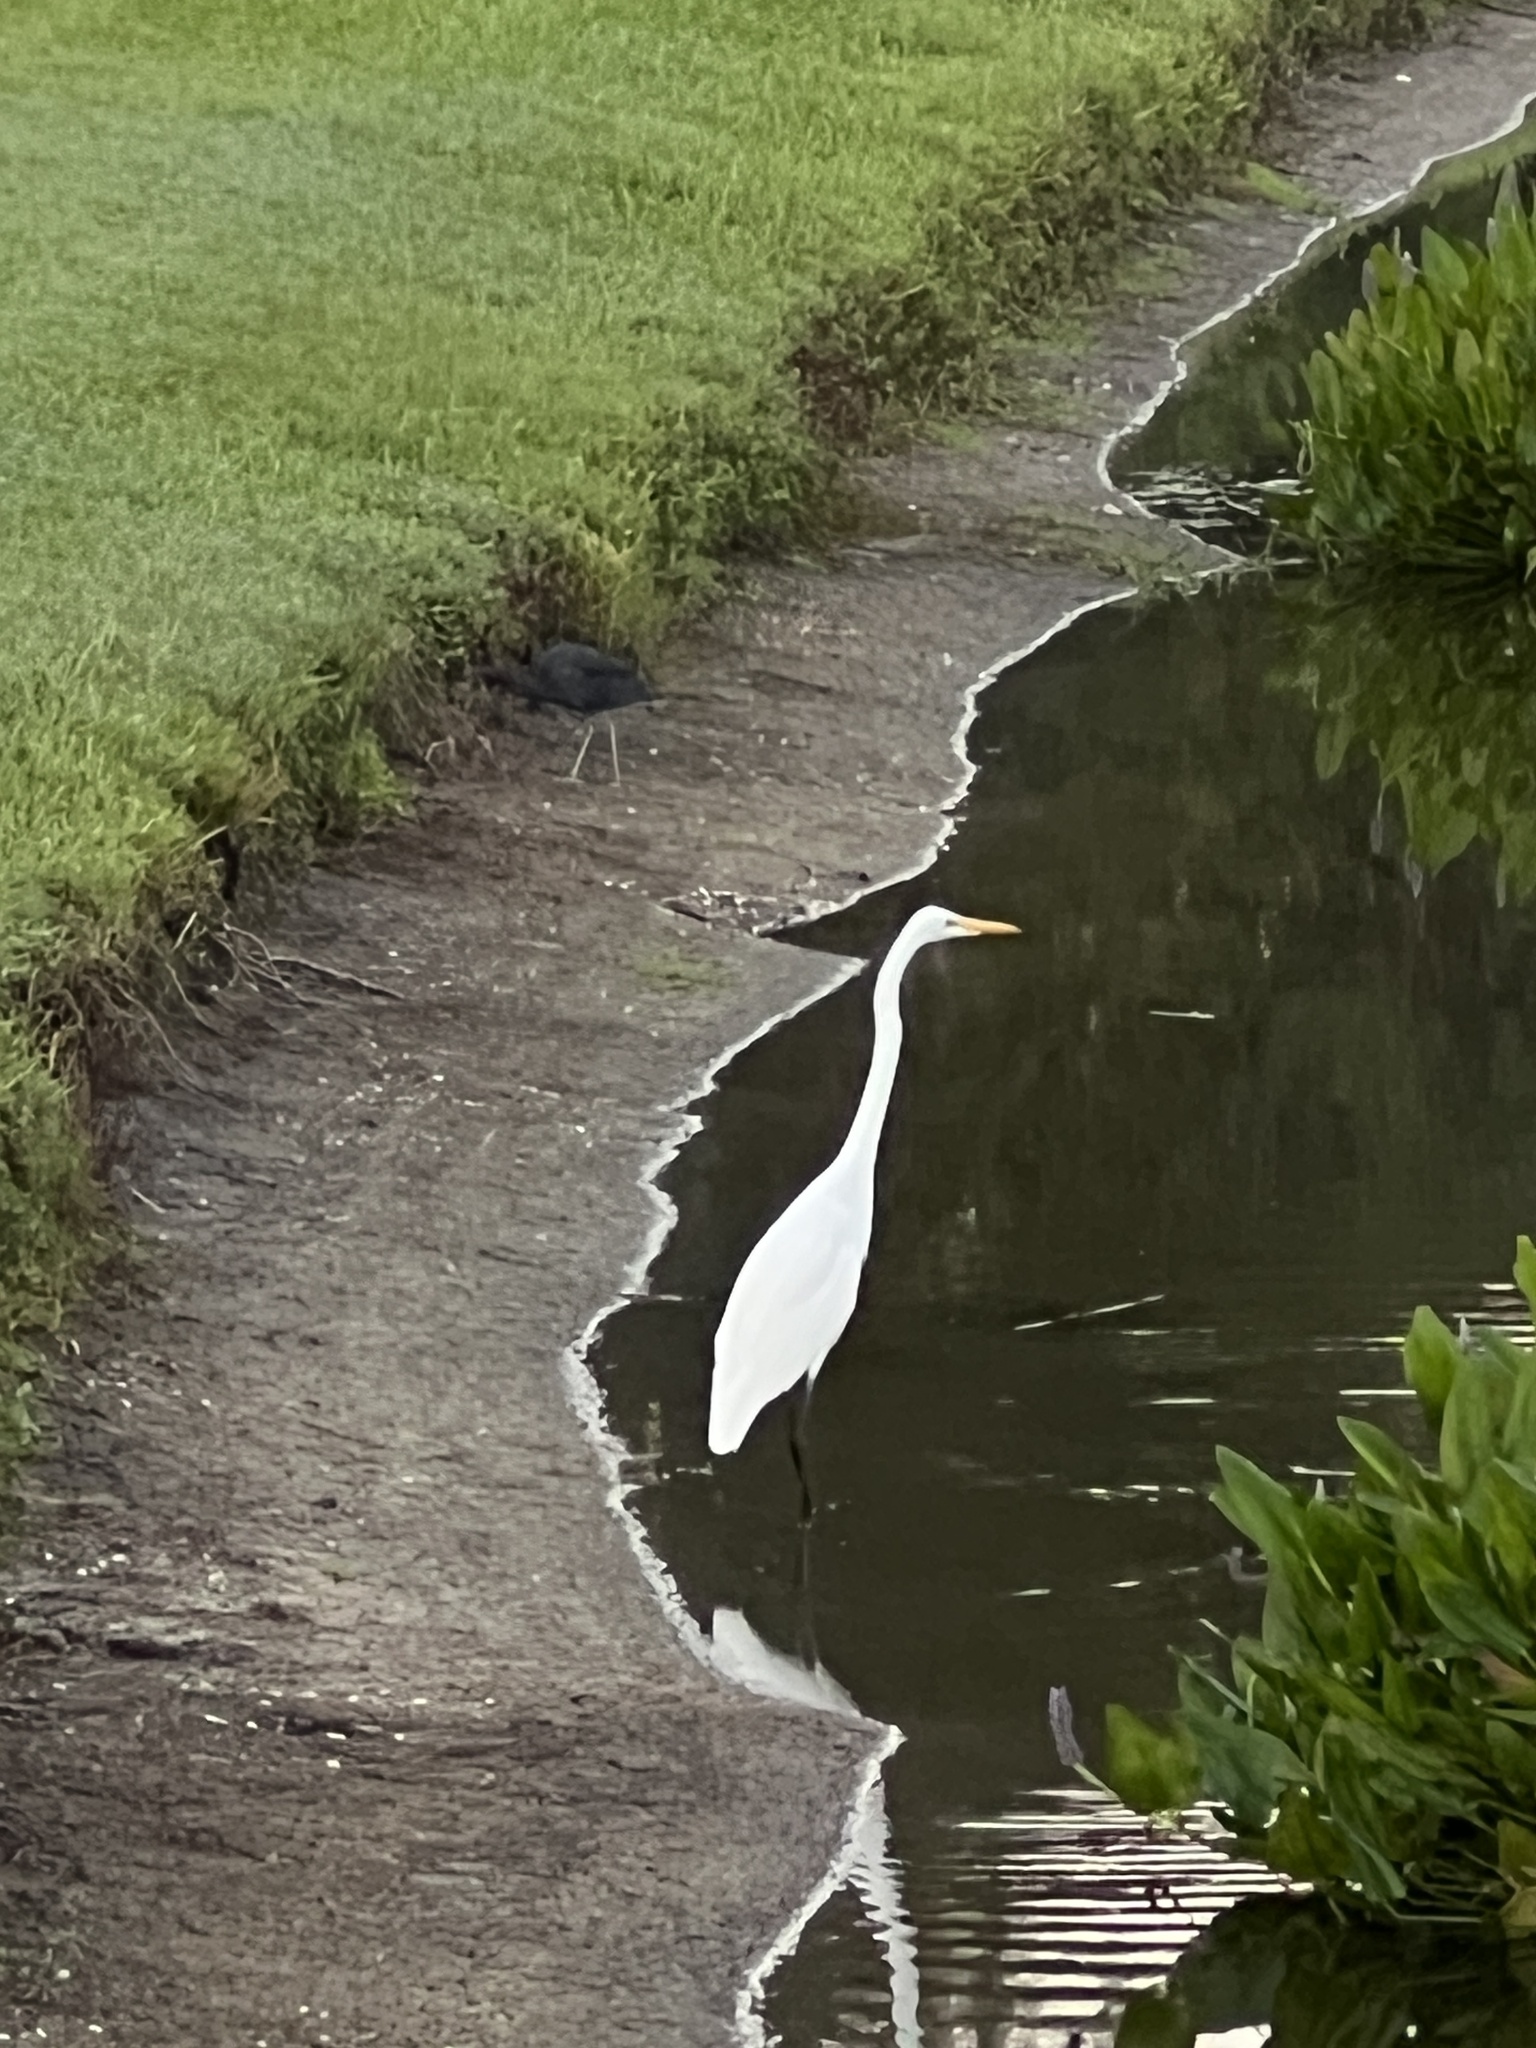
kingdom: Animalia
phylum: Chordata
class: Aves
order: Pelecaniformes
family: Ardeidae
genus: Ardea
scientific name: Ardea alba
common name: Great egret
